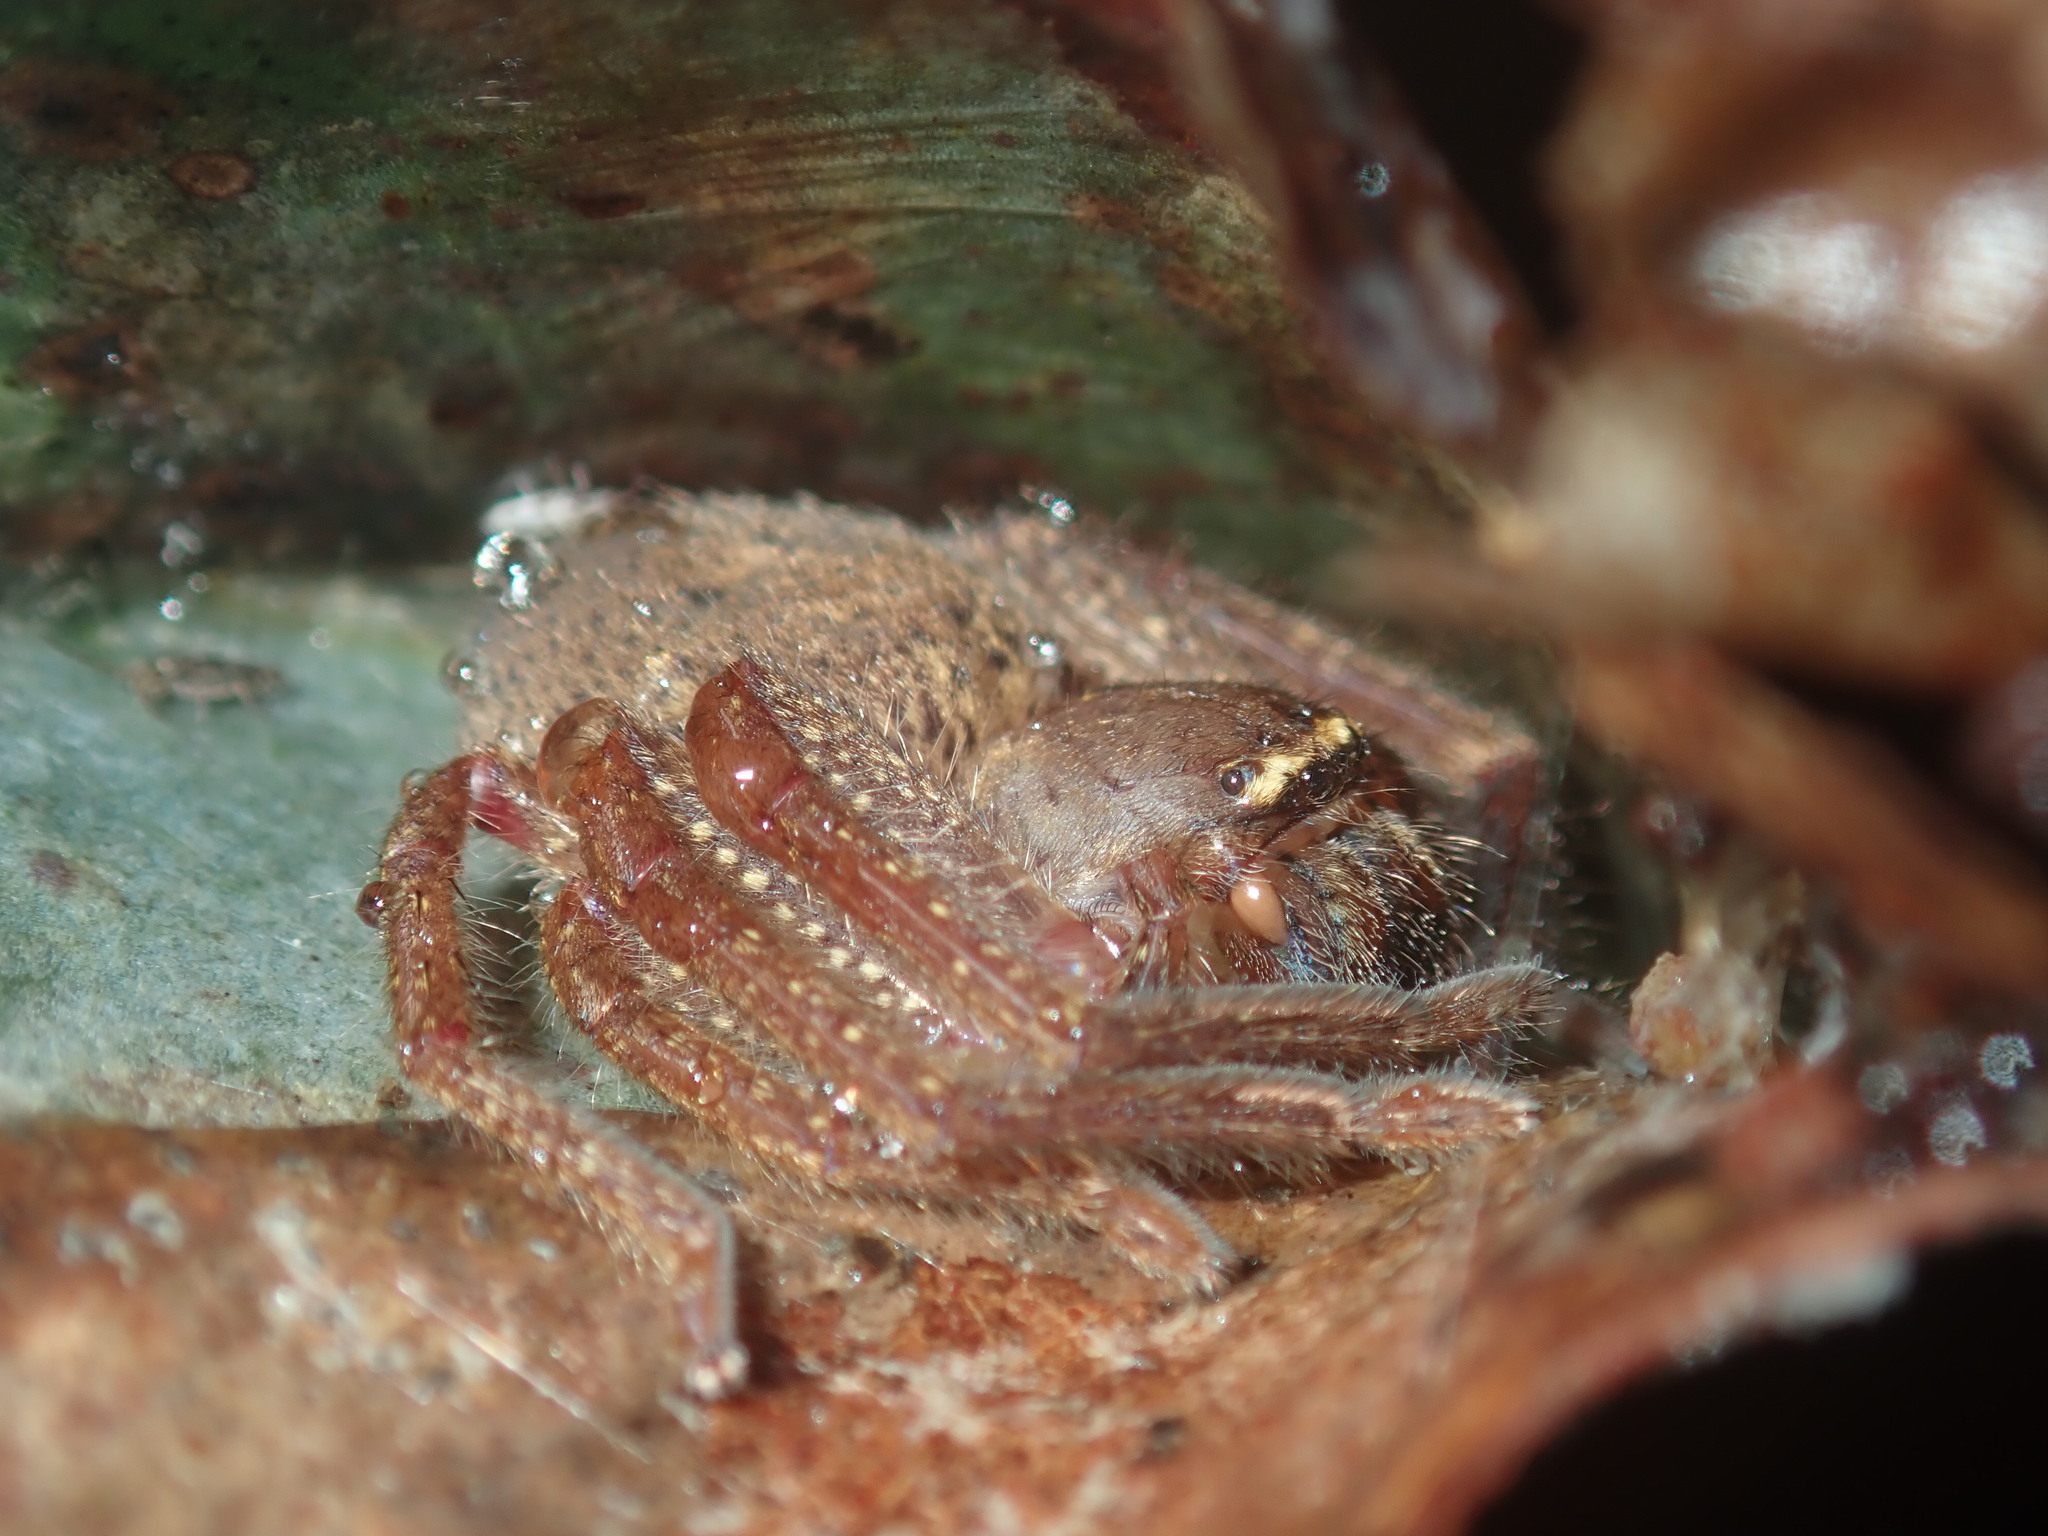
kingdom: Animalia
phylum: Arthropoda
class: Arachnida
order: Araneae
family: Sparassidae
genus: Neosparassus
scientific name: Neosparassus diana
